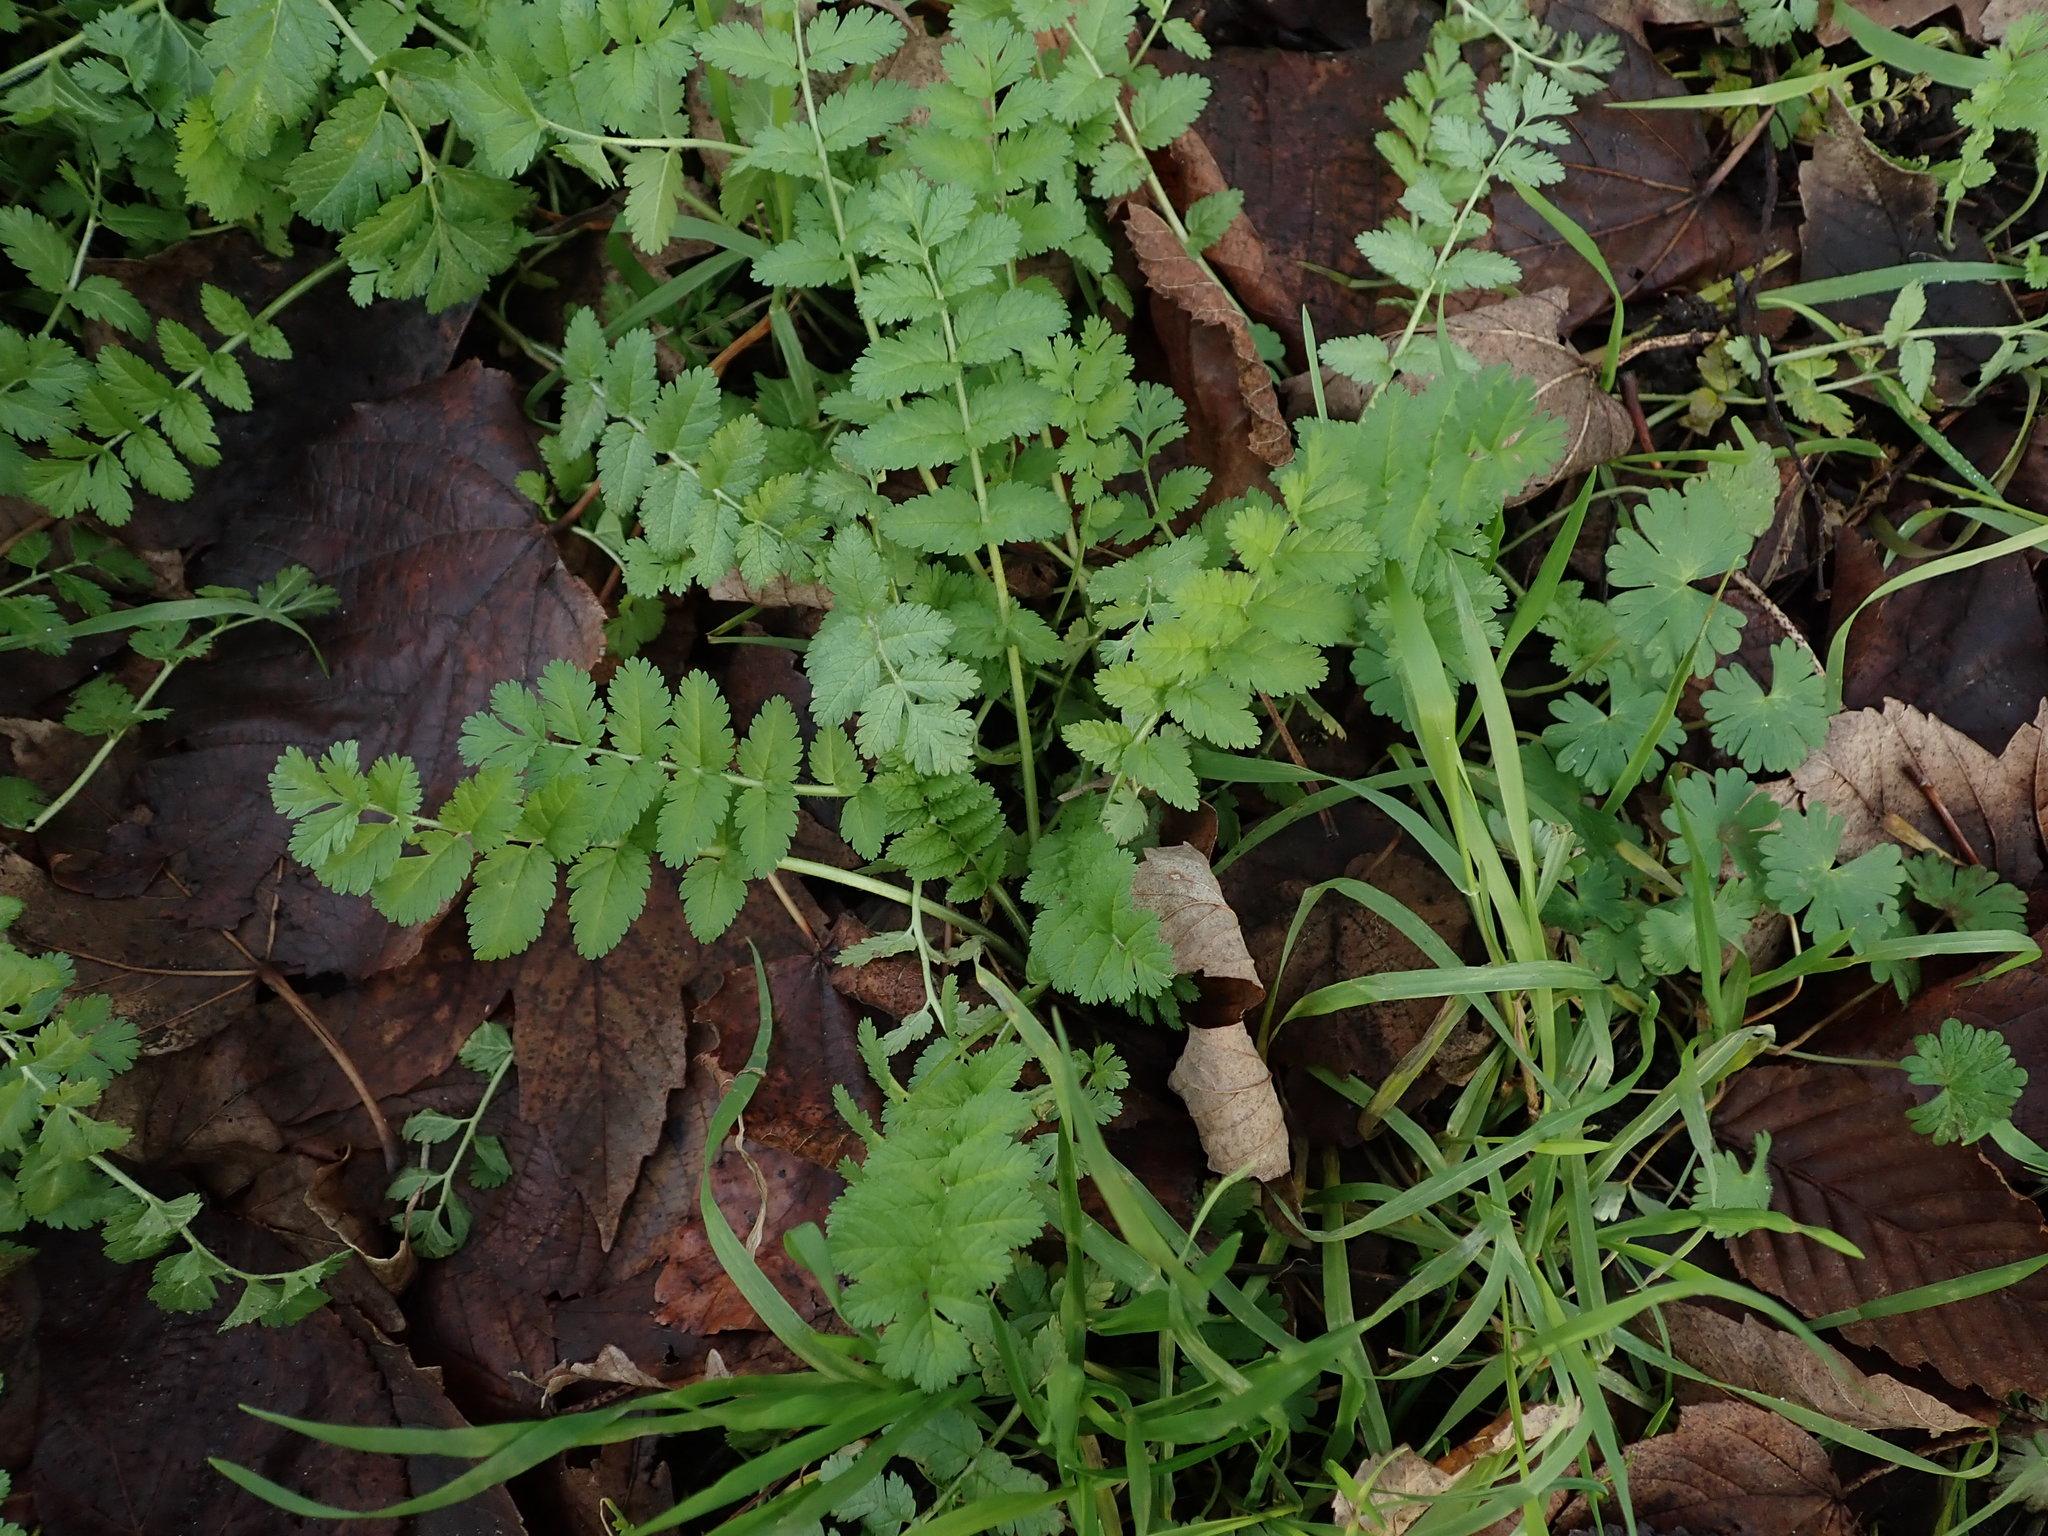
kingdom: Plantae
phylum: Tracheophyta
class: Magnoliopsida
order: Geraniales
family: Geraniaceae
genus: Erodium
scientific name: Erodium moschatum
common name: Musk stork's-bill
